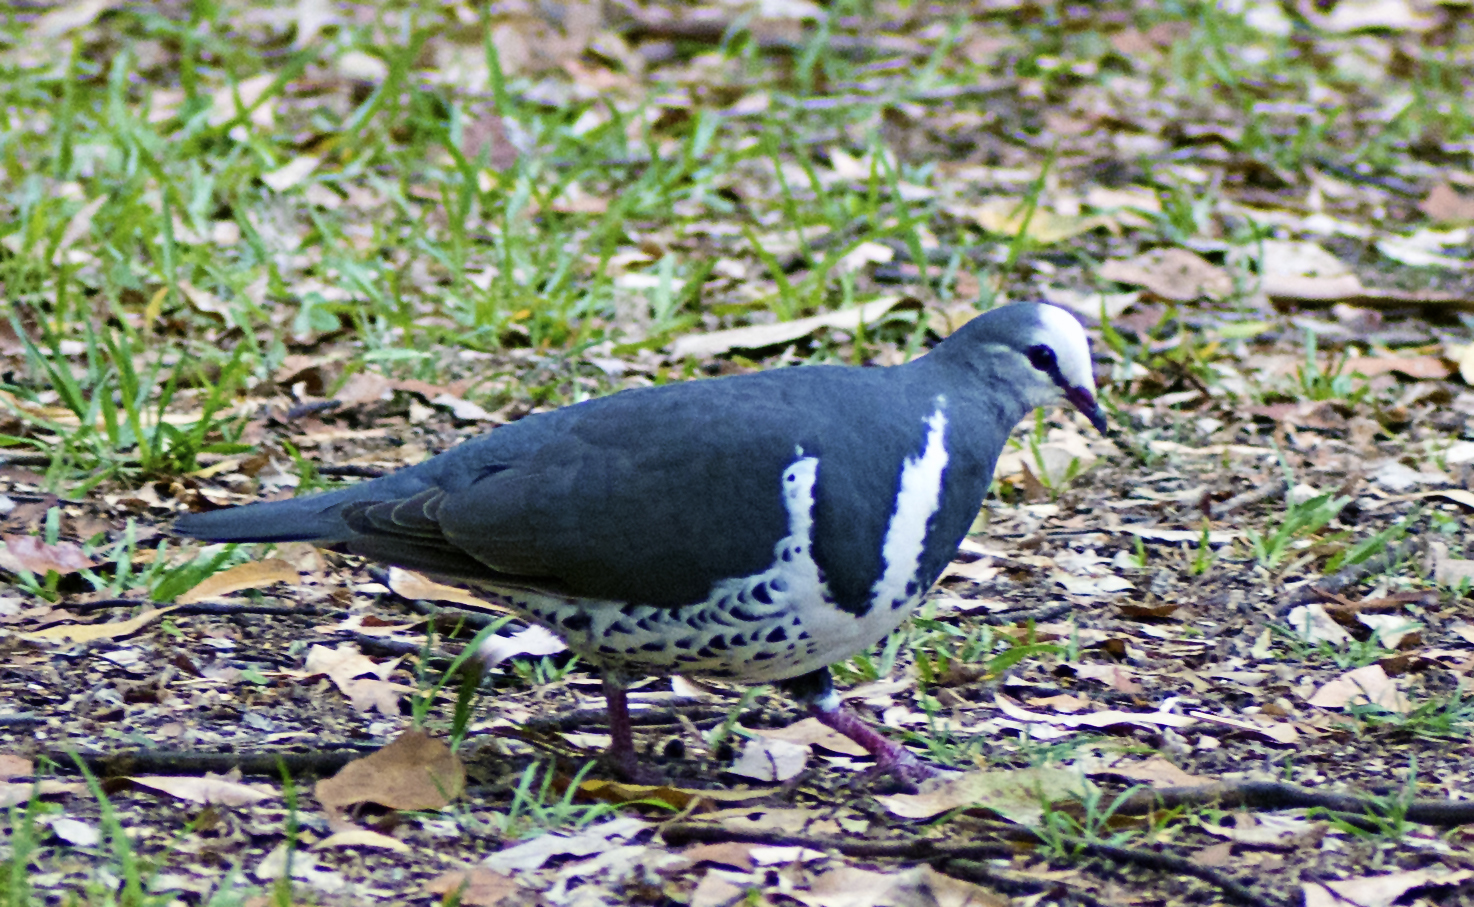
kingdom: Animalia
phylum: Chordata
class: Aves
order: Columbiformes
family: Columbidae
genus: Leucosarcia
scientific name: Leucosarcia melanoleuca
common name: Wonga pigeon
